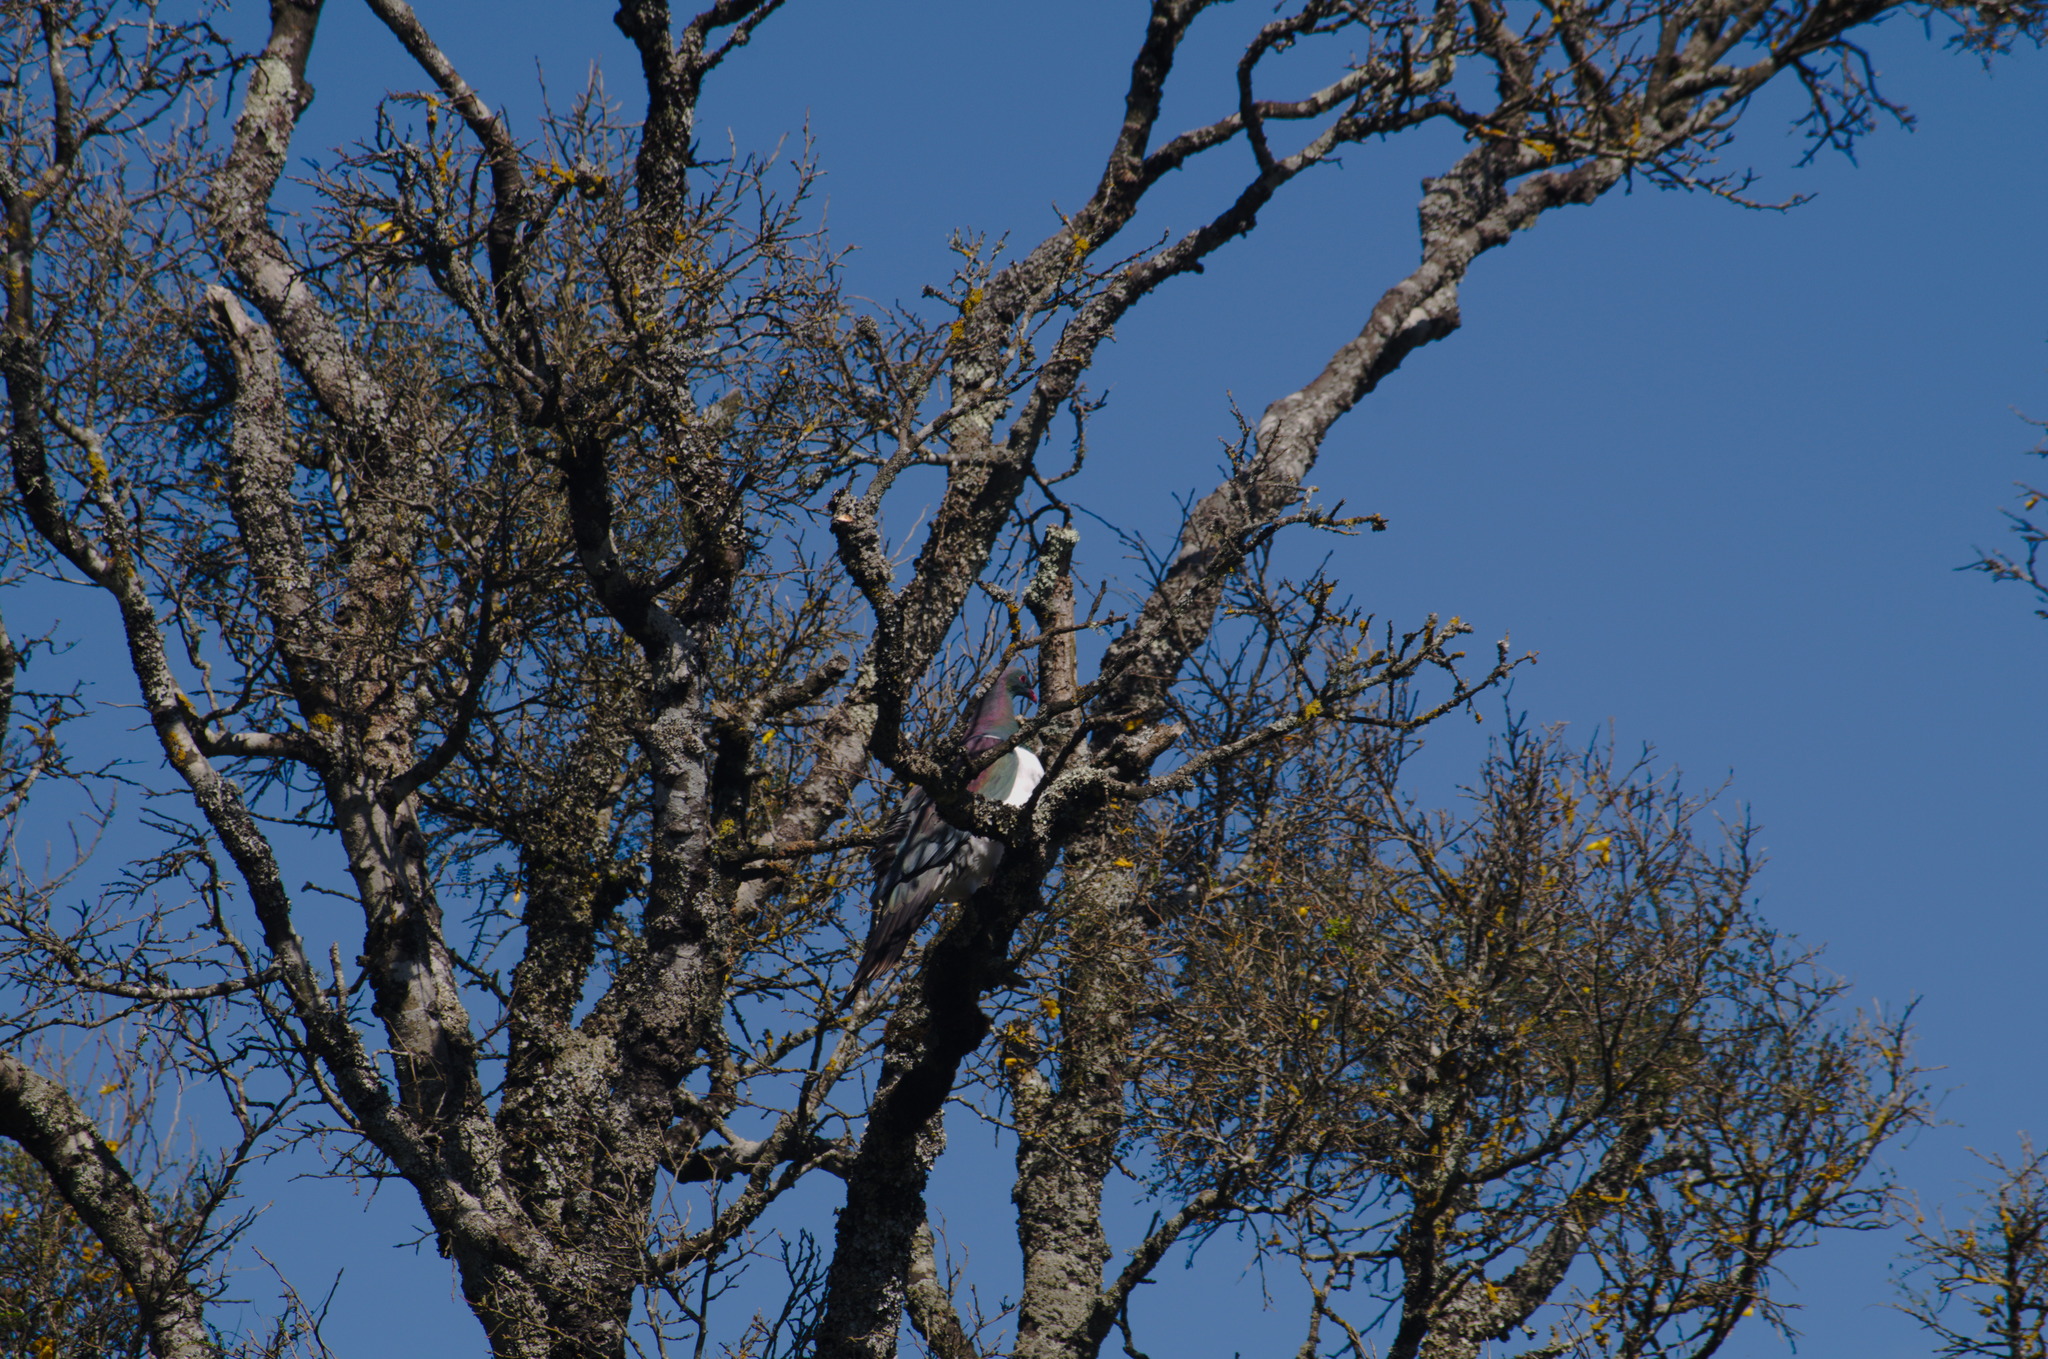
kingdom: Animalia
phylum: Chordata
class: Aves
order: Columbiformes
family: Columbidae
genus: Hemiphaga
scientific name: Hemiphaga novaeseelandiae
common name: New zealand pigeon
